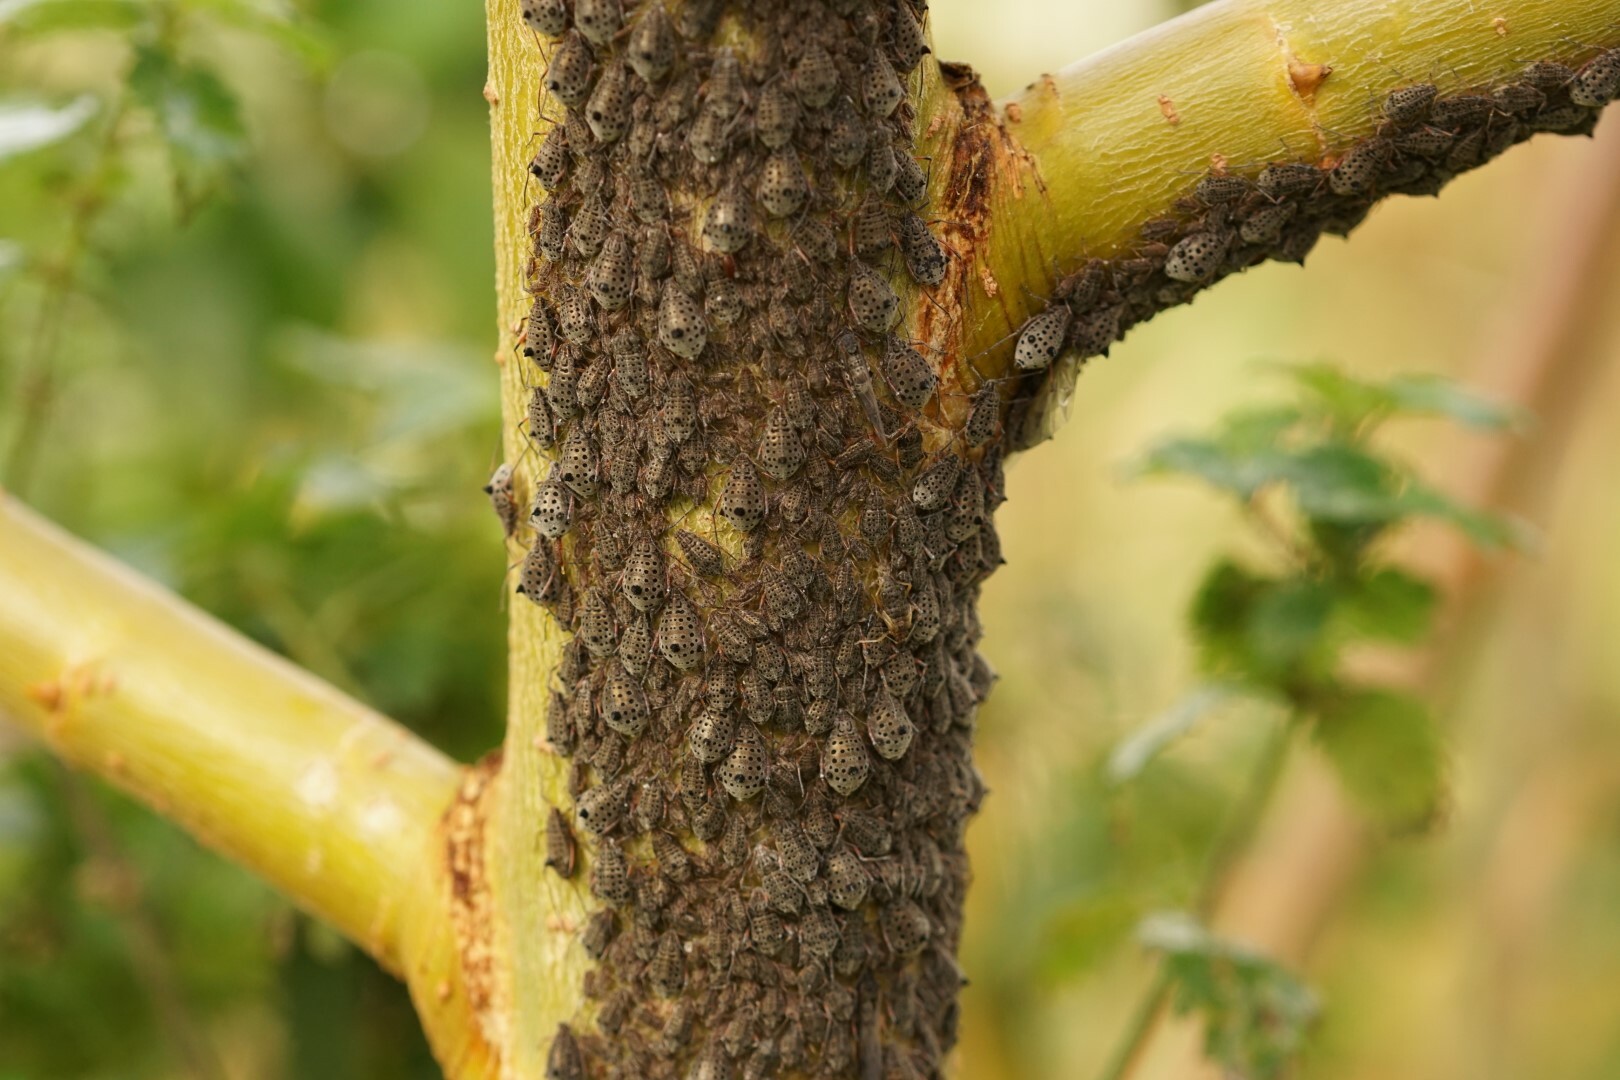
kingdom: Animalia
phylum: Arthropoda
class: Insecta
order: Hemiptera
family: Aphididae
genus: Tuberolachnus
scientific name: Tuberolachnus salignus
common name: Giant willow aphid
